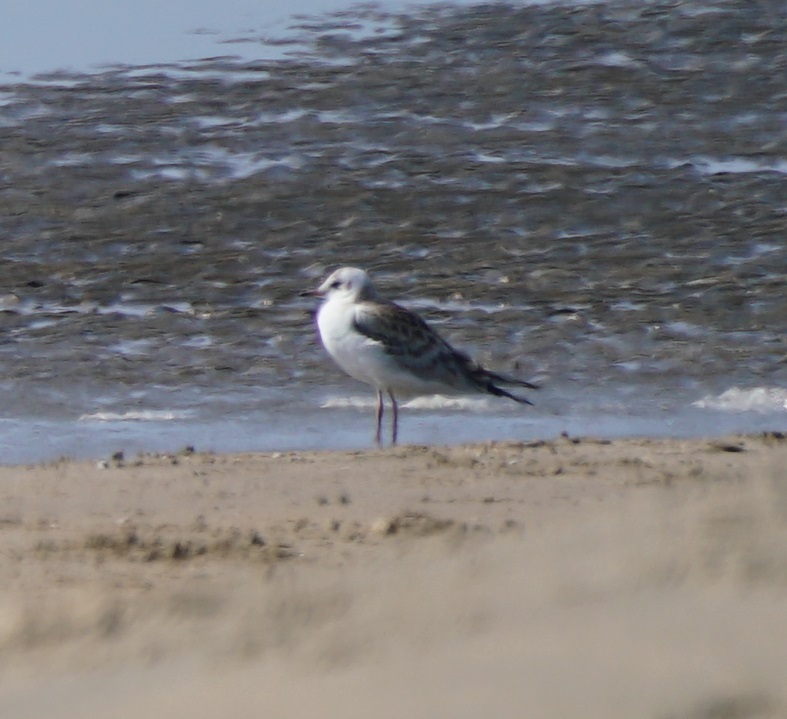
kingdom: Animalia
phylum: Chordata
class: Aves
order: Charadriiformes
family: Laridae
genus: Chroicocephalus
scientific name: Chroicocephalus ridibundus
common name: Black-headed gull
